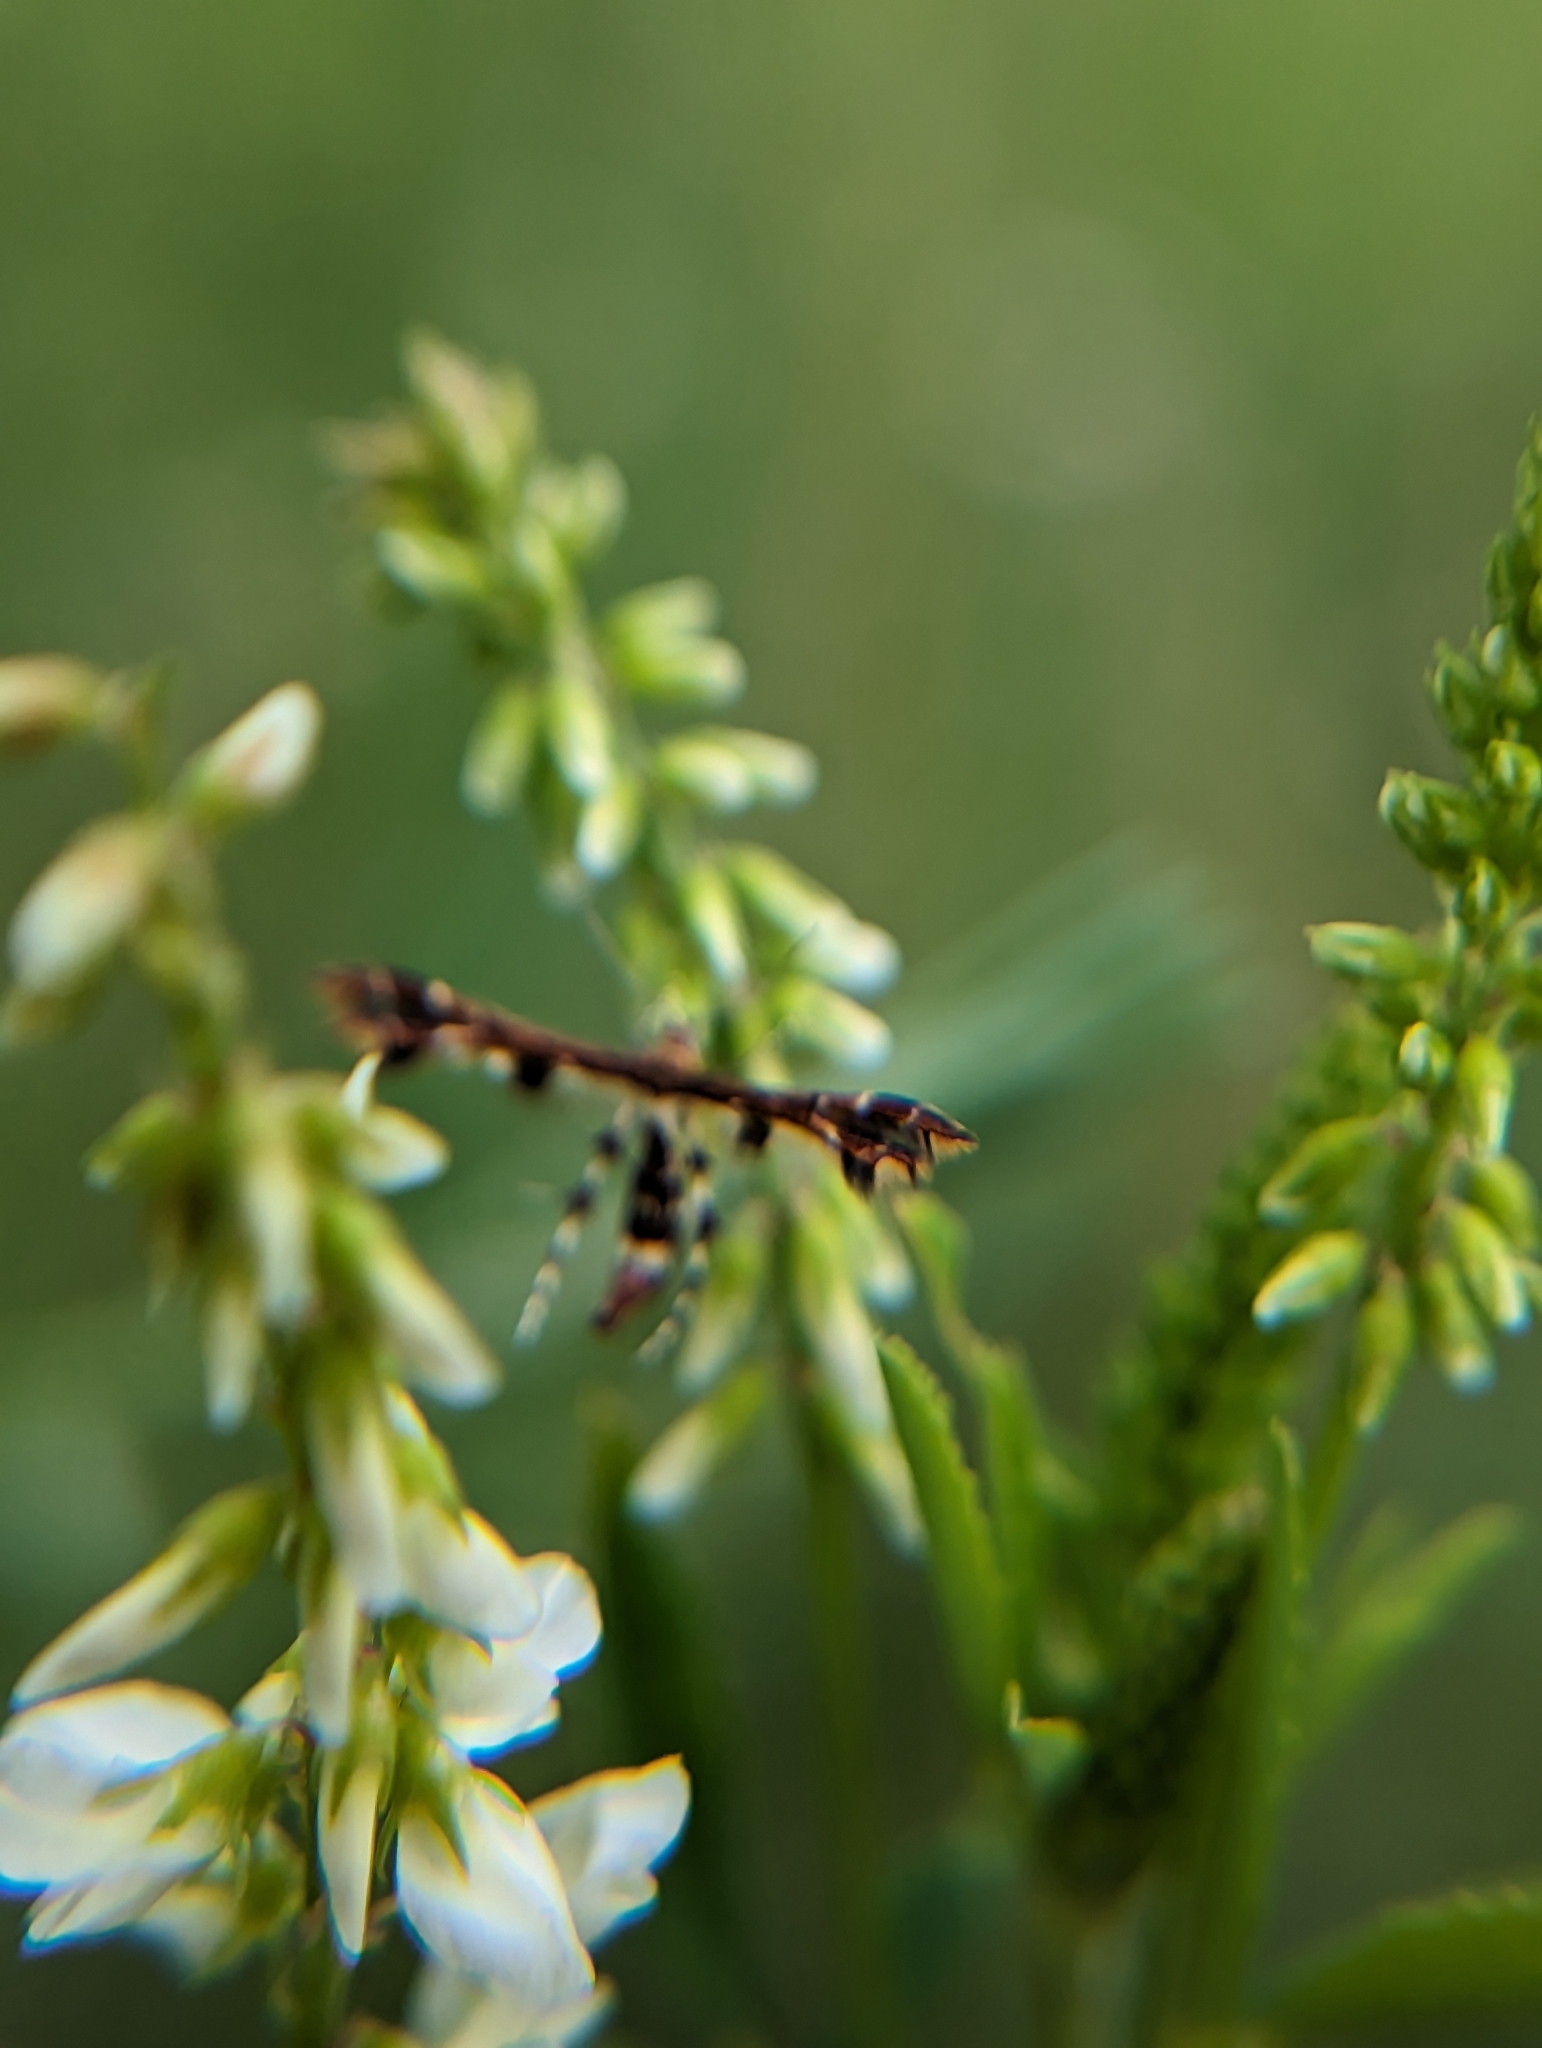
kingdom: Animalia
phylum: Arthropoda
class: Insecta
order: Lepidoptera
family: Pterophoridae
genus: Geina
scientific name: Geina
